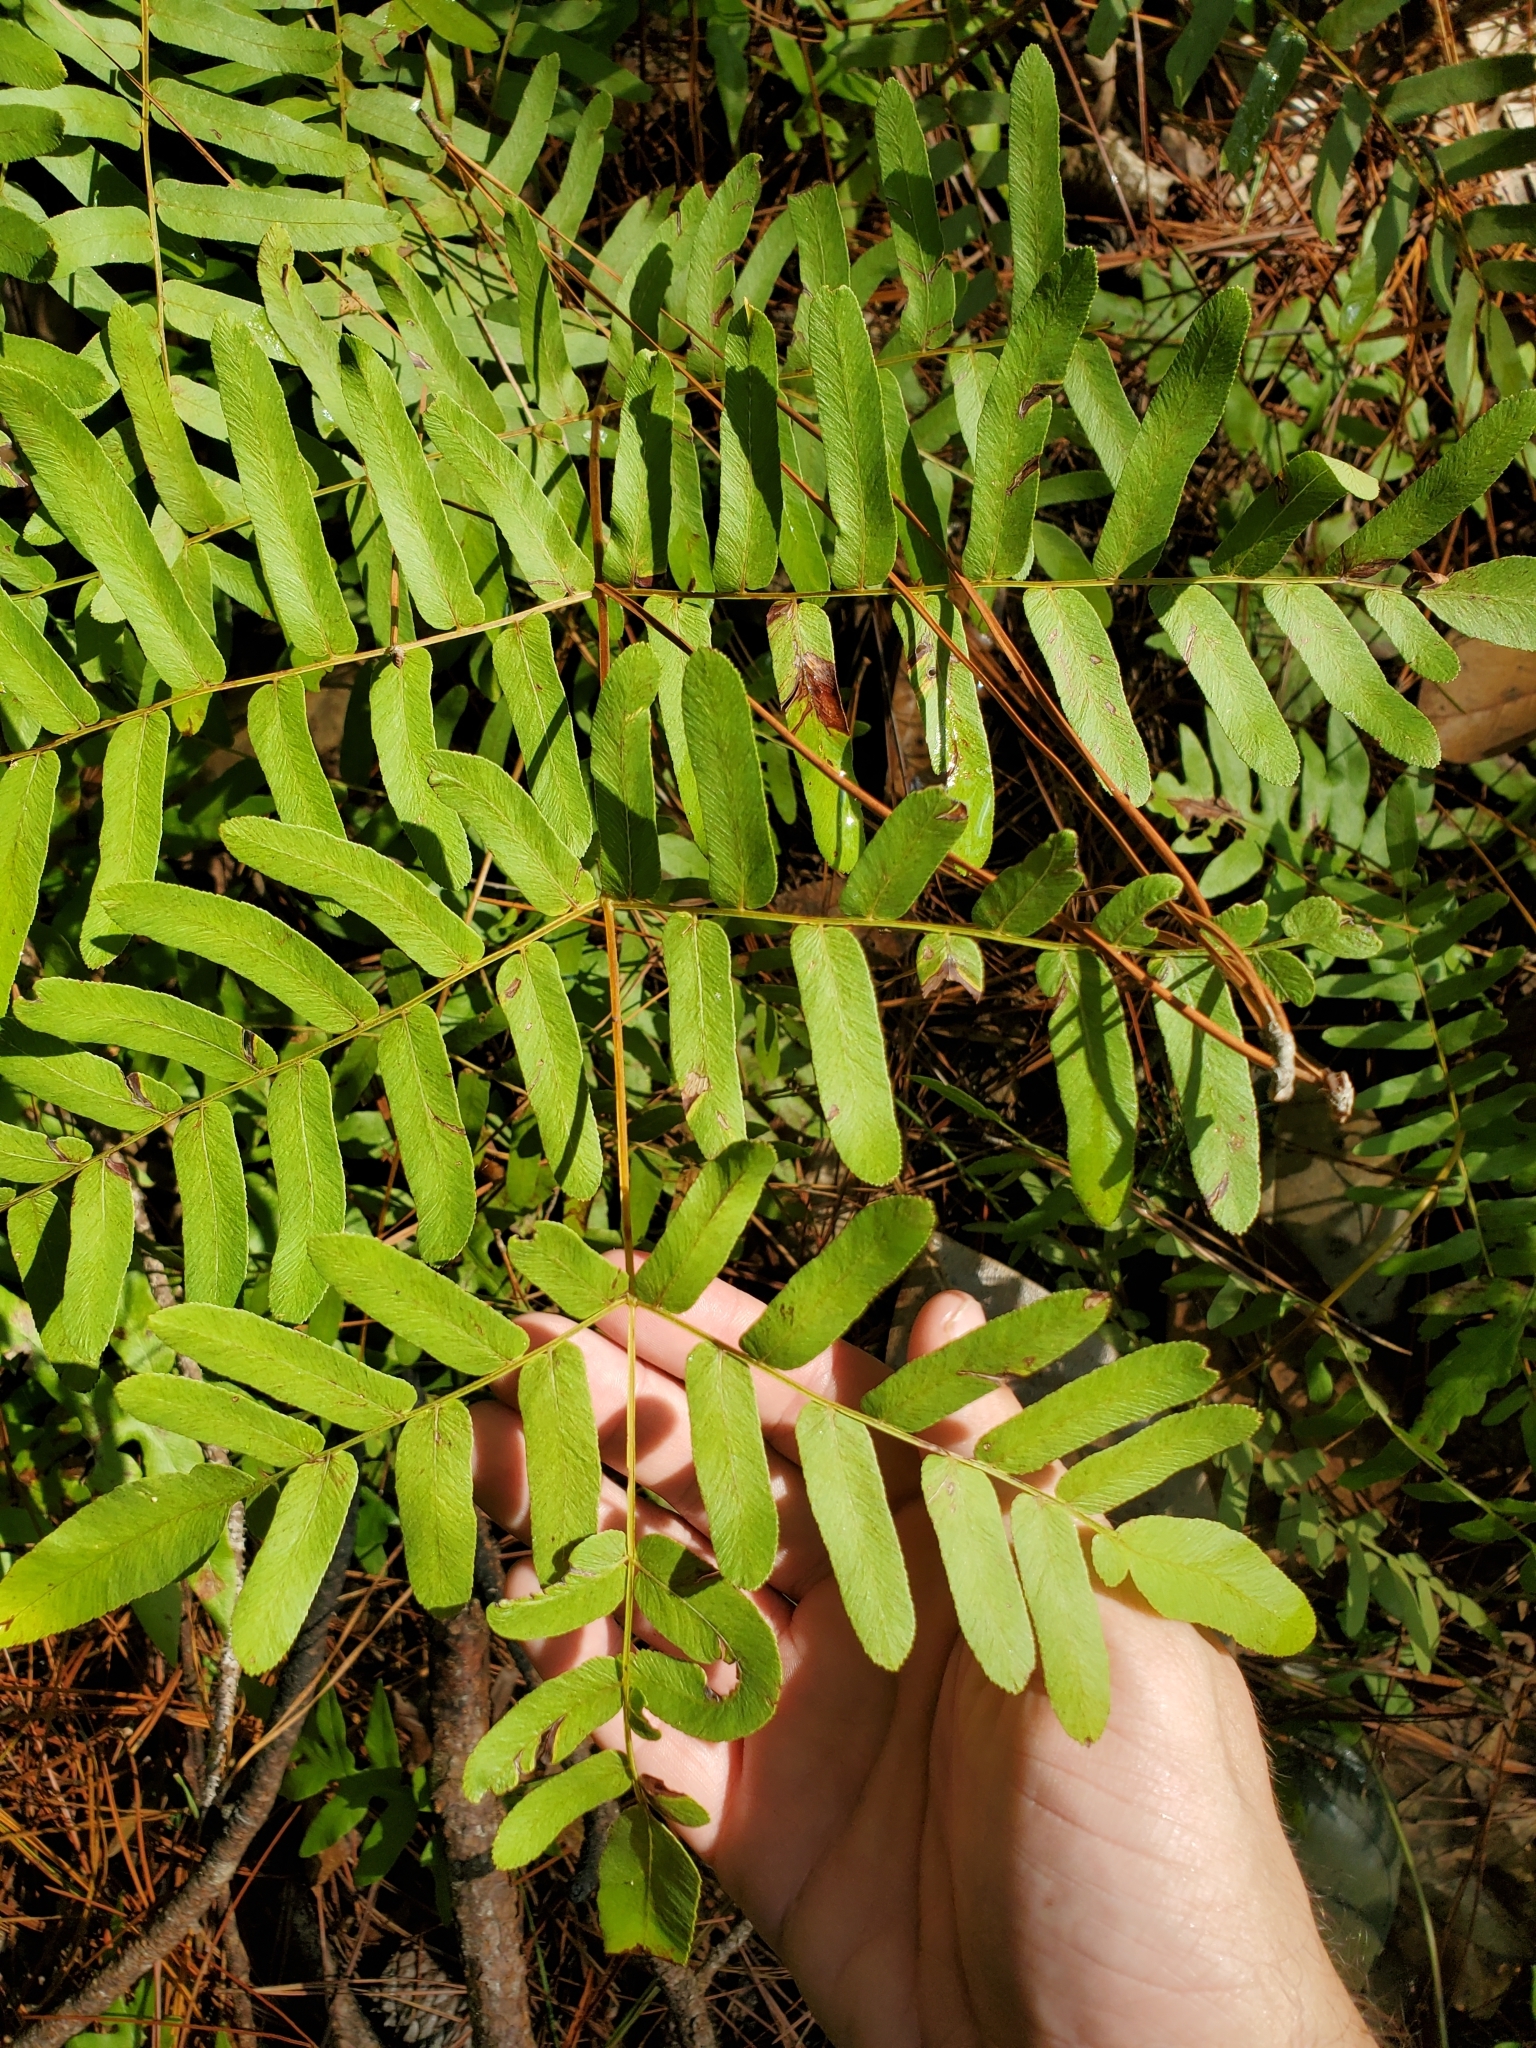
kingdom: Plantae
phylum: Tracheophyta
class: Polypodiopsida
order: Osmundales
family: Osmundaceae
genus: Osmunda
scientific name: Osmunda spectabilis
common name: American royal fern
